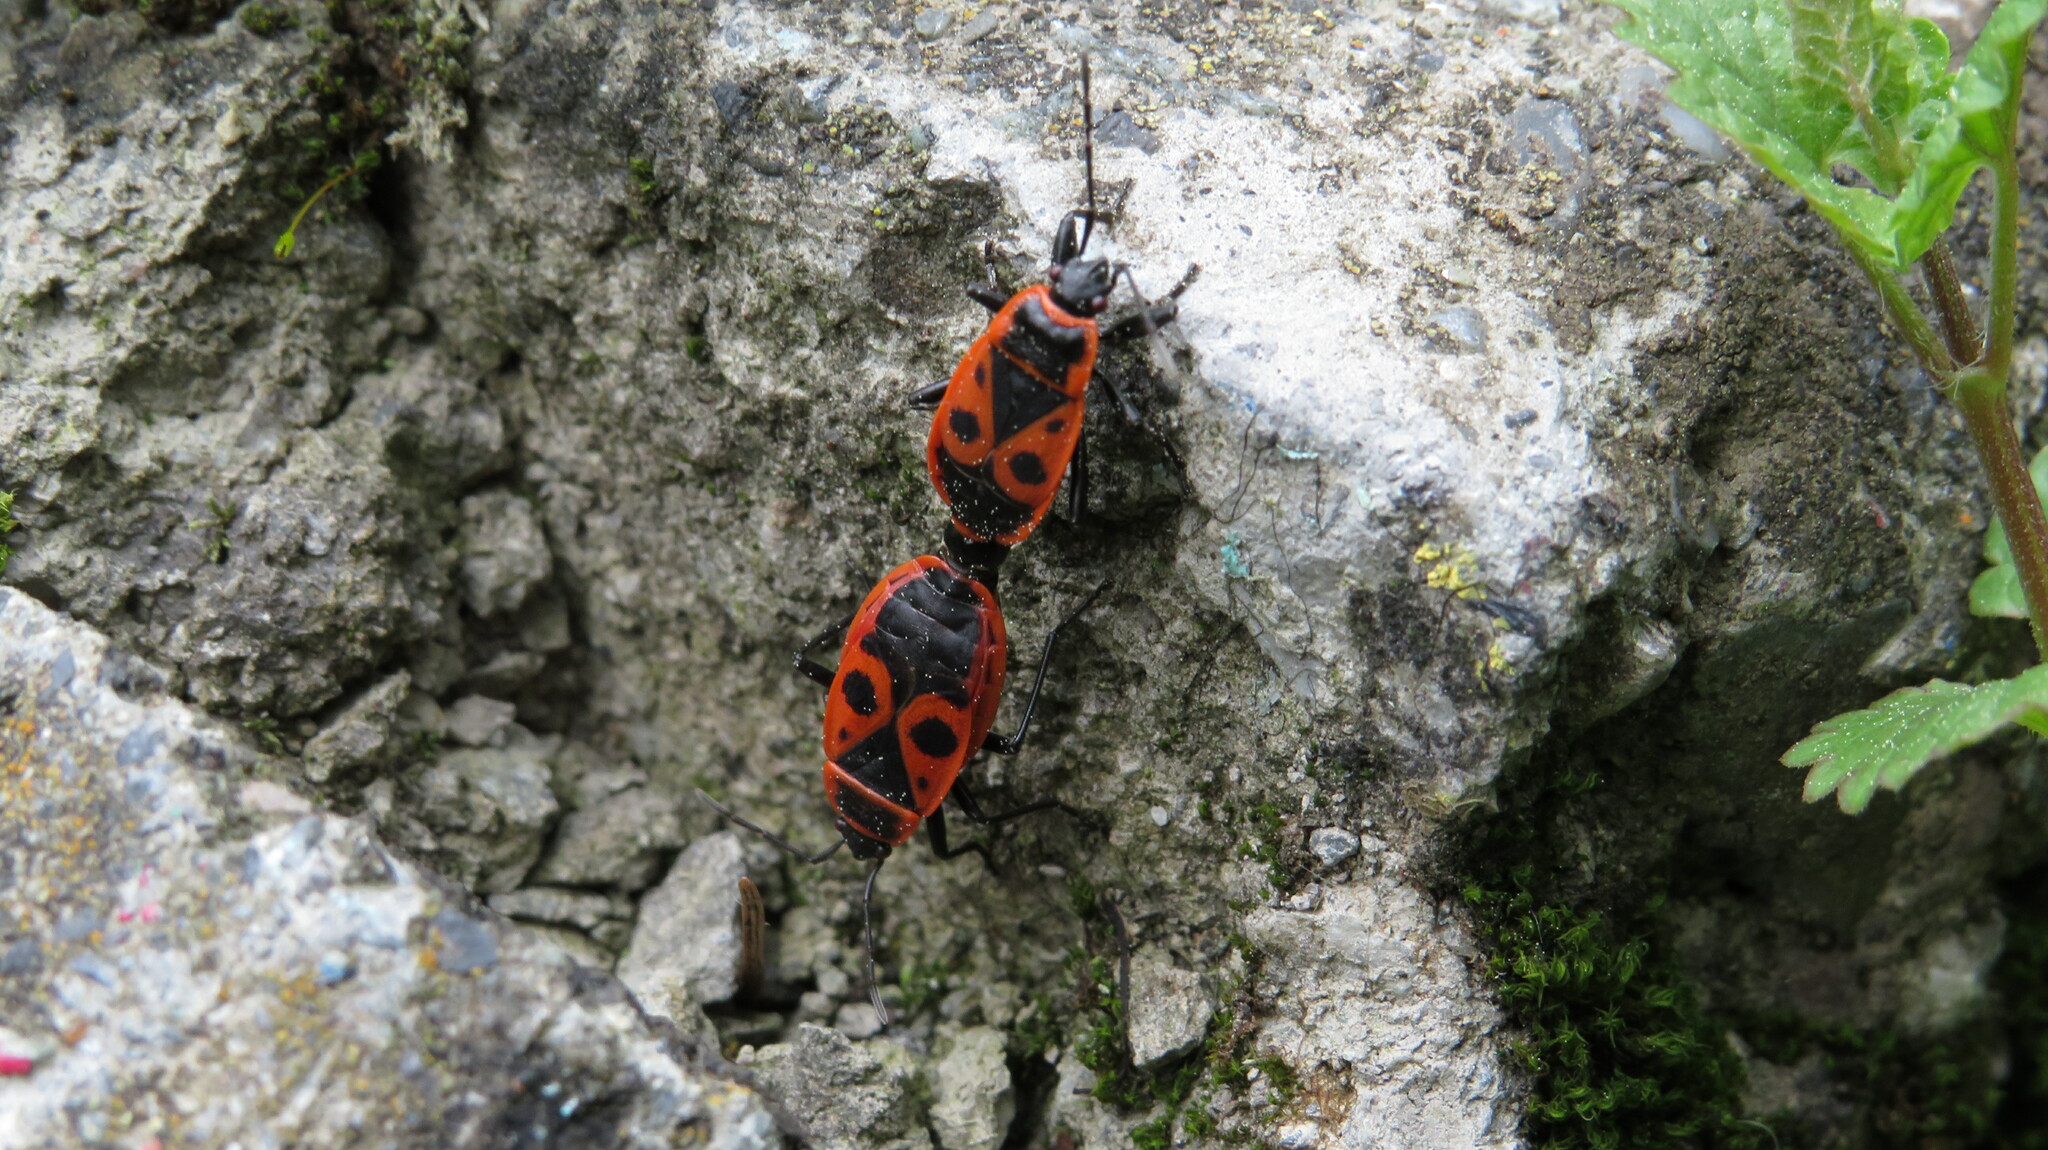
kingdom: Animalia
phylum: Arthropoda
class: Insecta
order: Hemiptera
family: Pyrrhocoridae
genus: Pyrrhocoris
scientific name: Pyrrhocoris apterus
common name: Firebug
